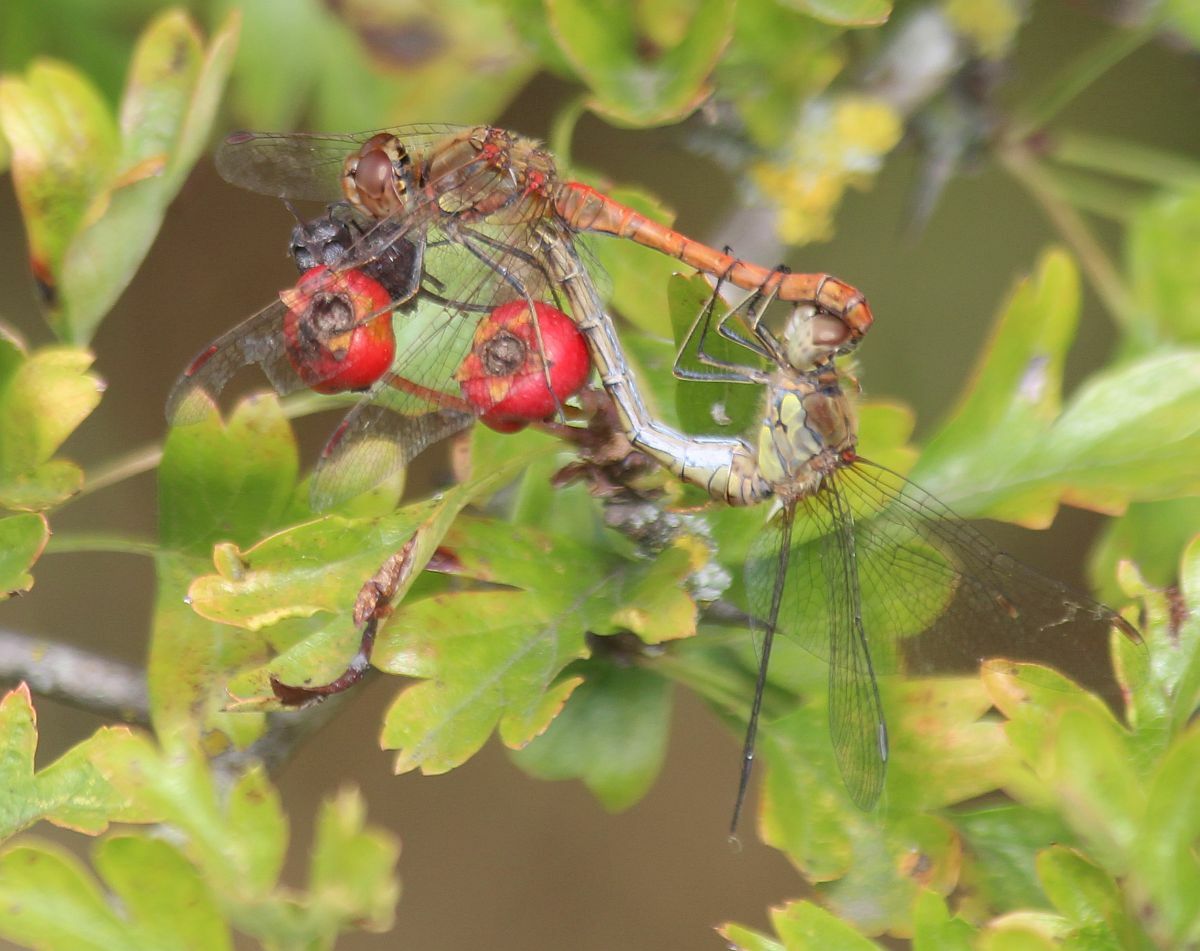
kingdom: Animalia
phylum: Arthropoda
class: Insecta
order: Odonata
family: Libellulidae
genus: Sympetrum
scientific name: Sympetrum striolatum
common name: Common darter
